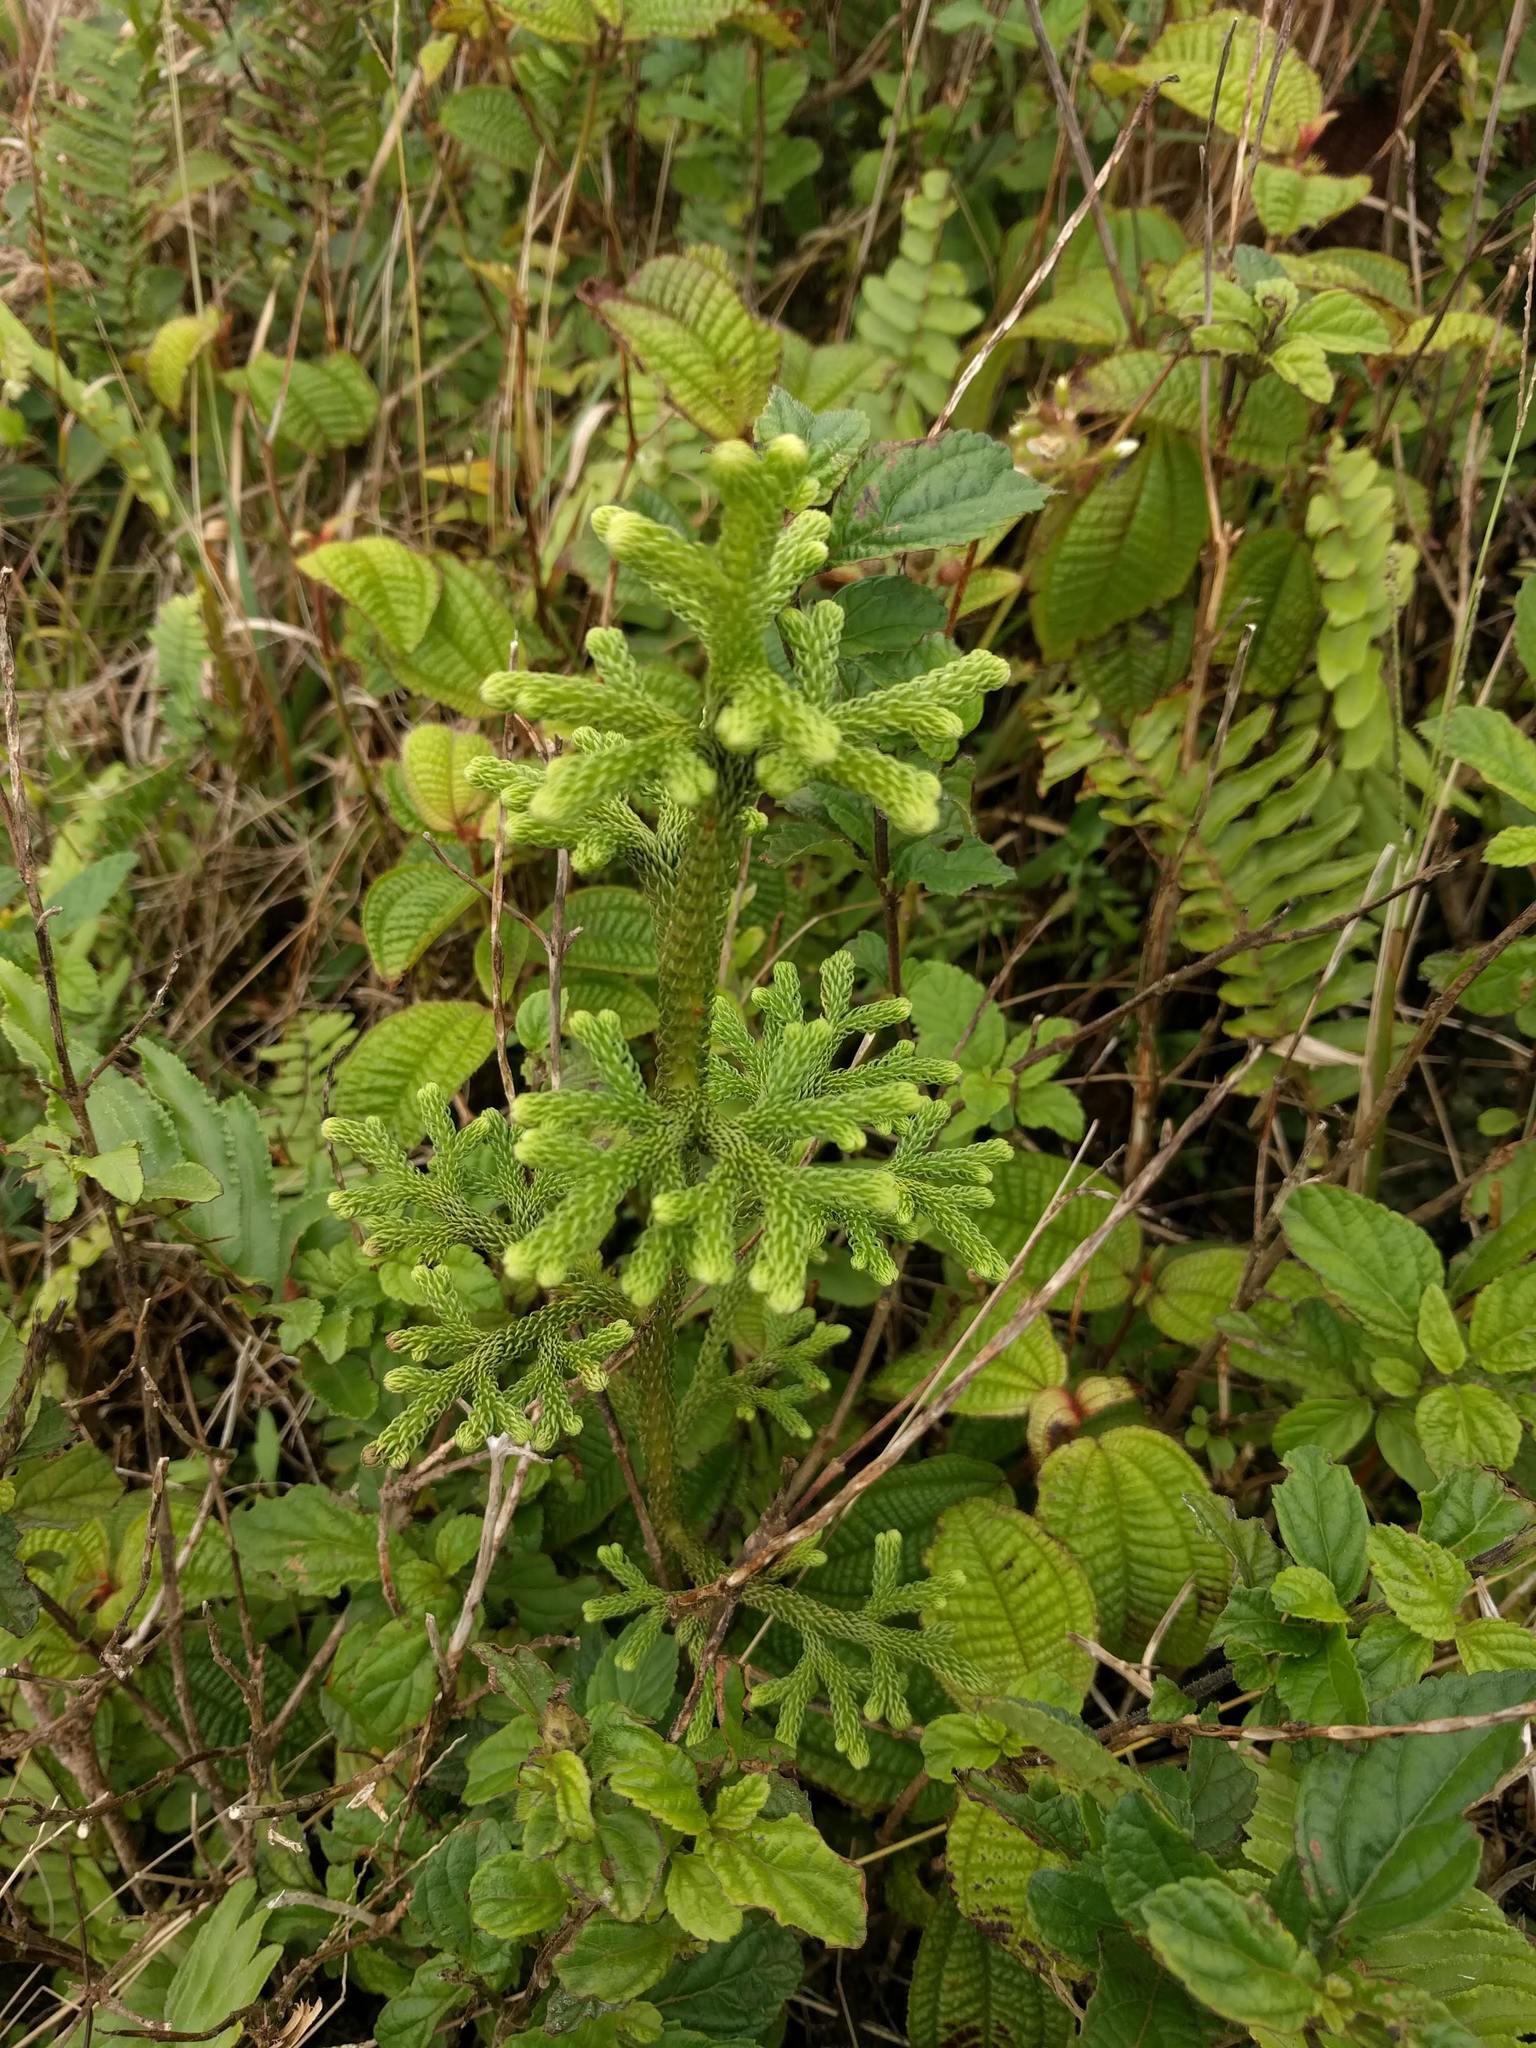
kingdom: Plantae
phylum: Tracheophyta
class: Lycopodiopsida
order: Lycopodiales
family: Lycopodiaceae
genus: Palhinhaea
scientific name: Palhinhaea cernua
